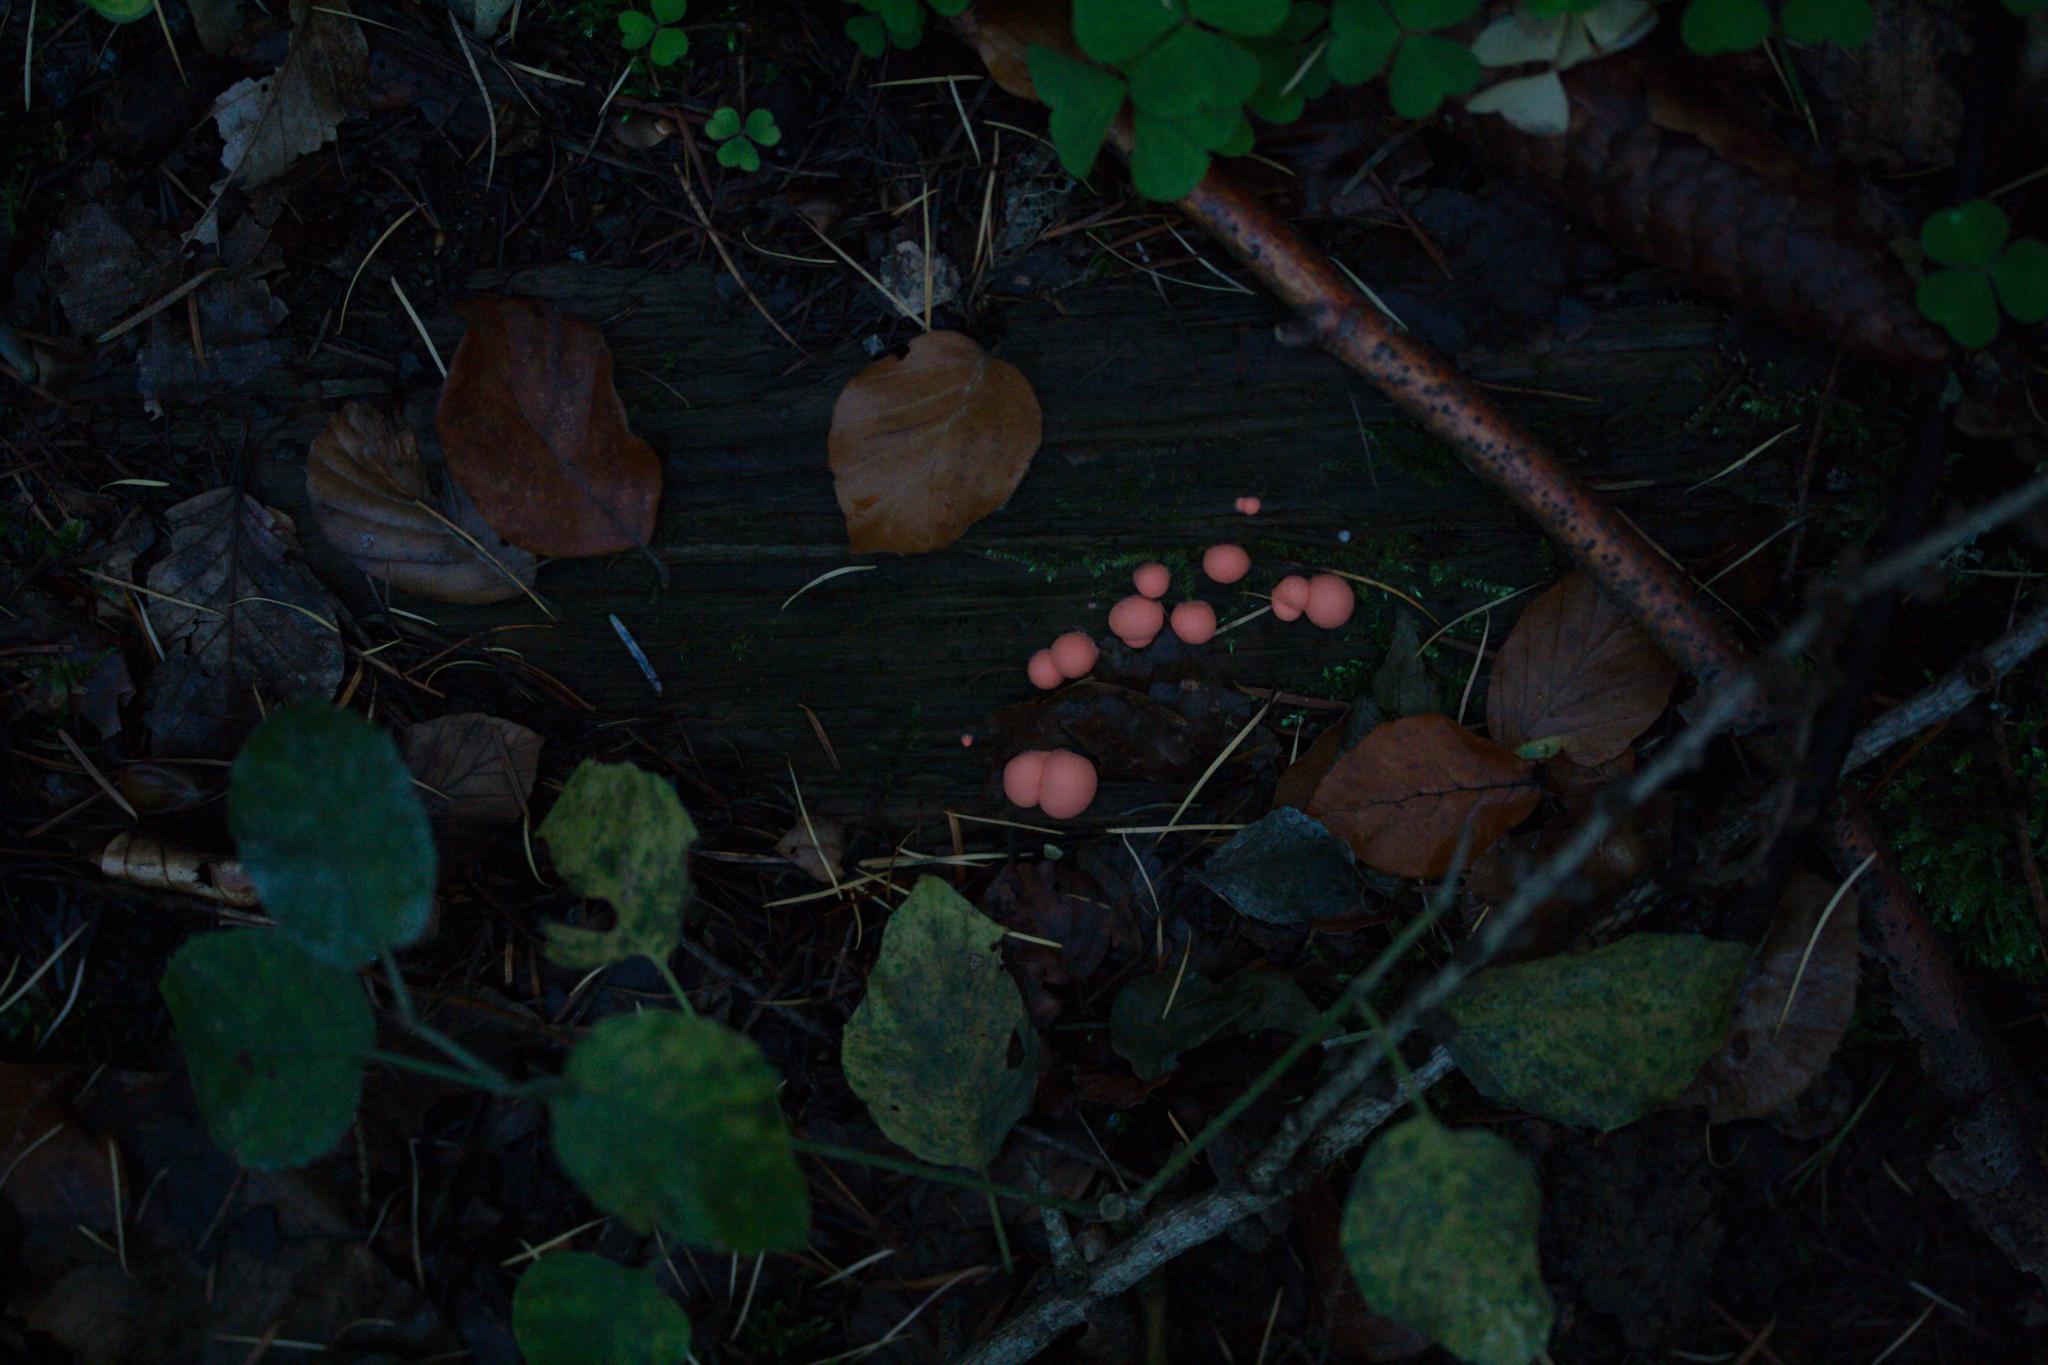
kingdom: Protozoa
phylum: Mycetozoa
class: Myxomycetes
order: Cribrariales
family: Tubiferaceae
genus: Lycogala
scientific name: Lycogala epidendrum
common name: Wolf's milk
